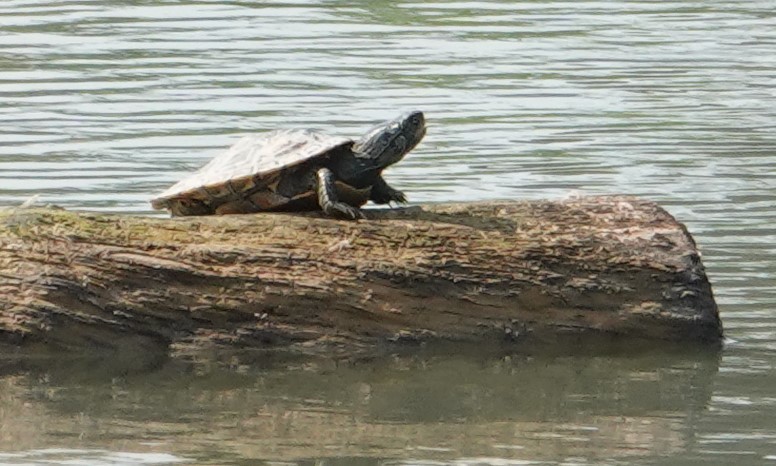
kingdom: Animalia
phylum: Chordata
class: Testudines
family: Emydidae
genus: Graptemys
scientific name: Graptemys geographica
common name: Common map turtle
